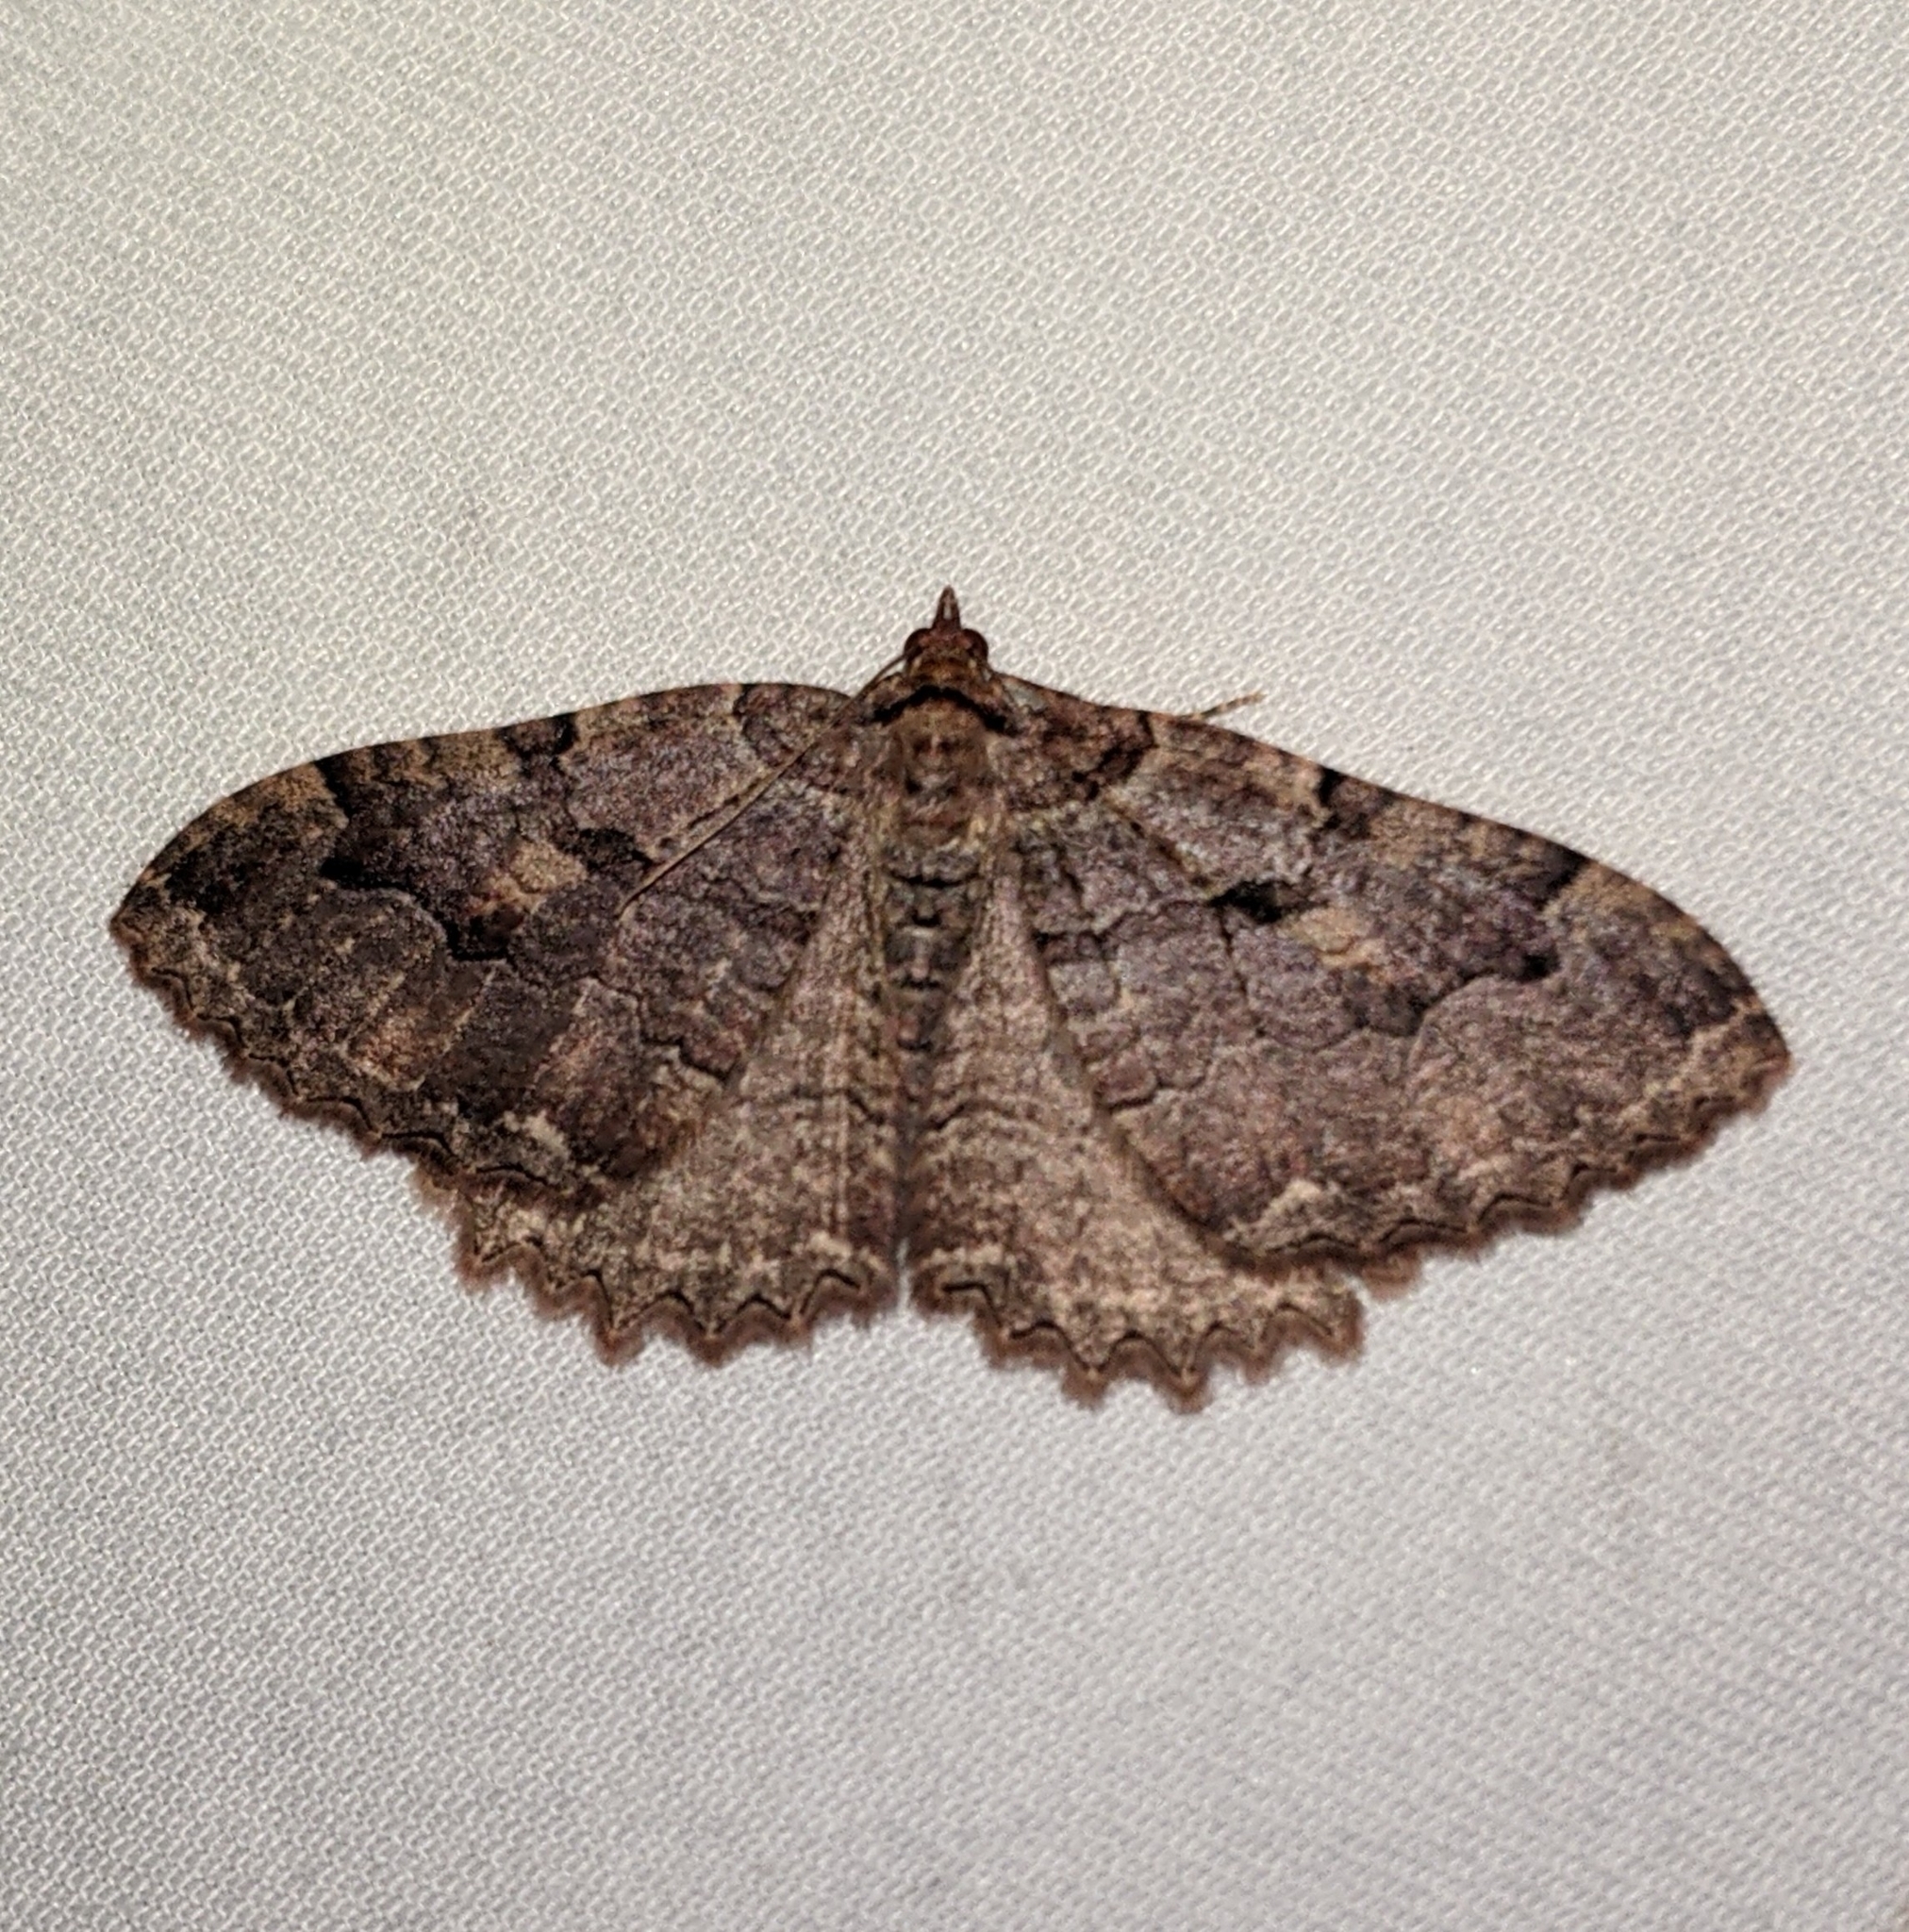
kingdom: Animalia
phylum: Arthropoda
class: Insecta
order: Lepidoptera
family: Geometridae
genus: Triphosa
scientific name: Triphosa haesitata
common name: Tissue moth
